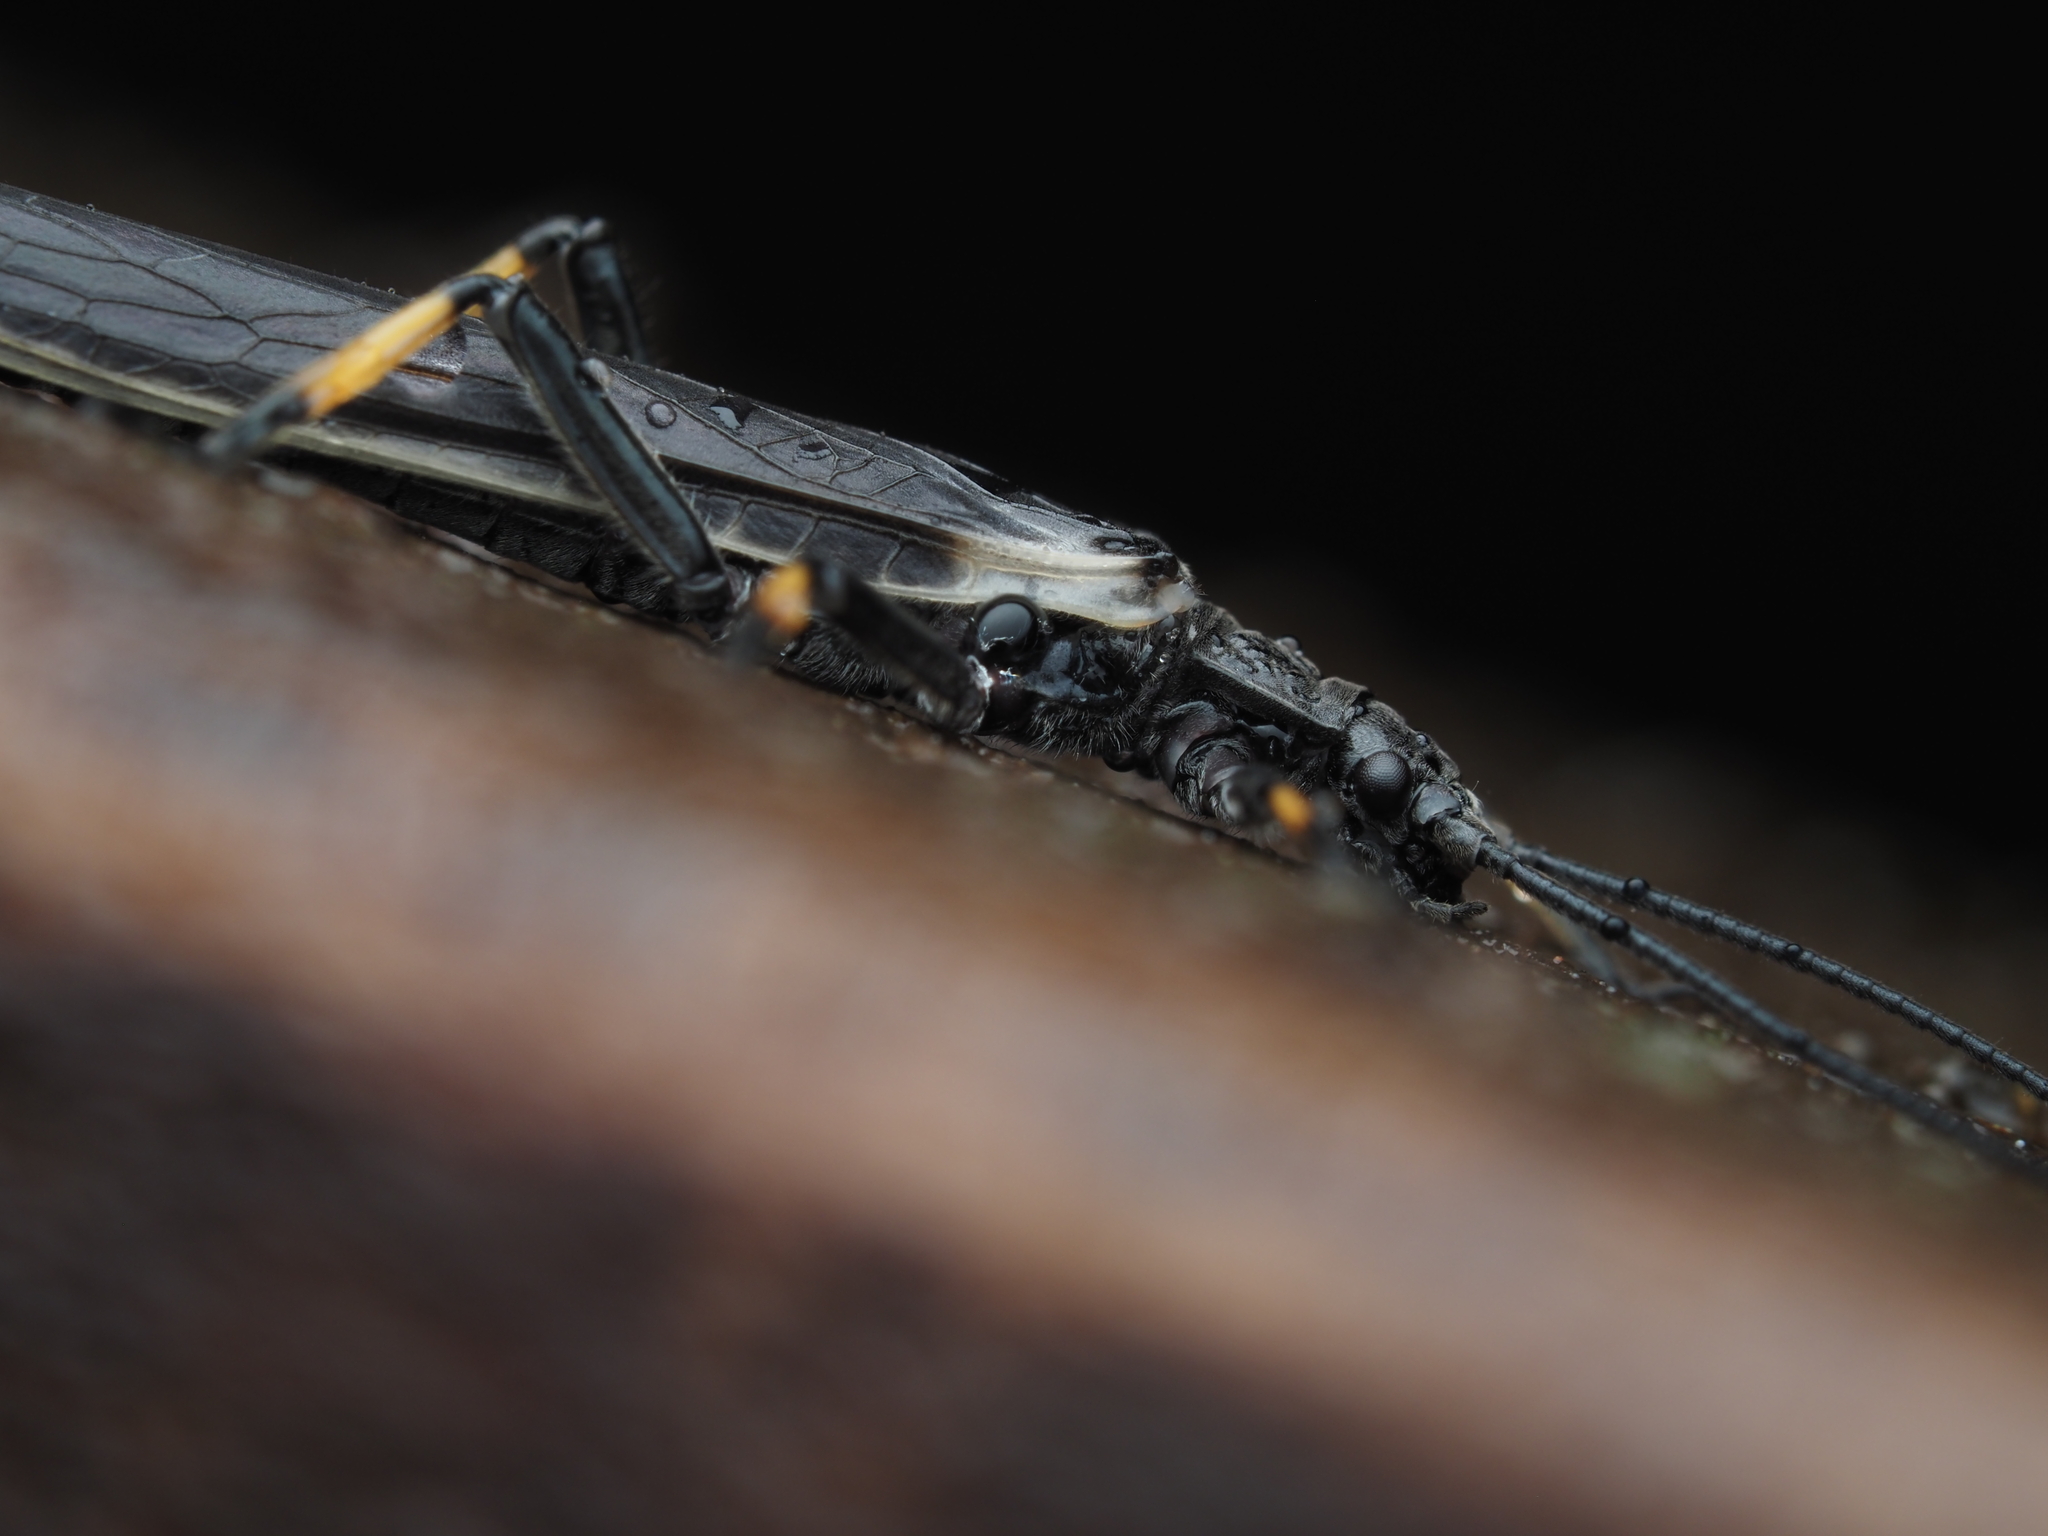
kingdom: Animalia
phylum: Arthropoda
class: Insecta
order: Plecoptera
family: Austroperlidae
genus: Austroperla
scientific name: Austroperla cyrene
